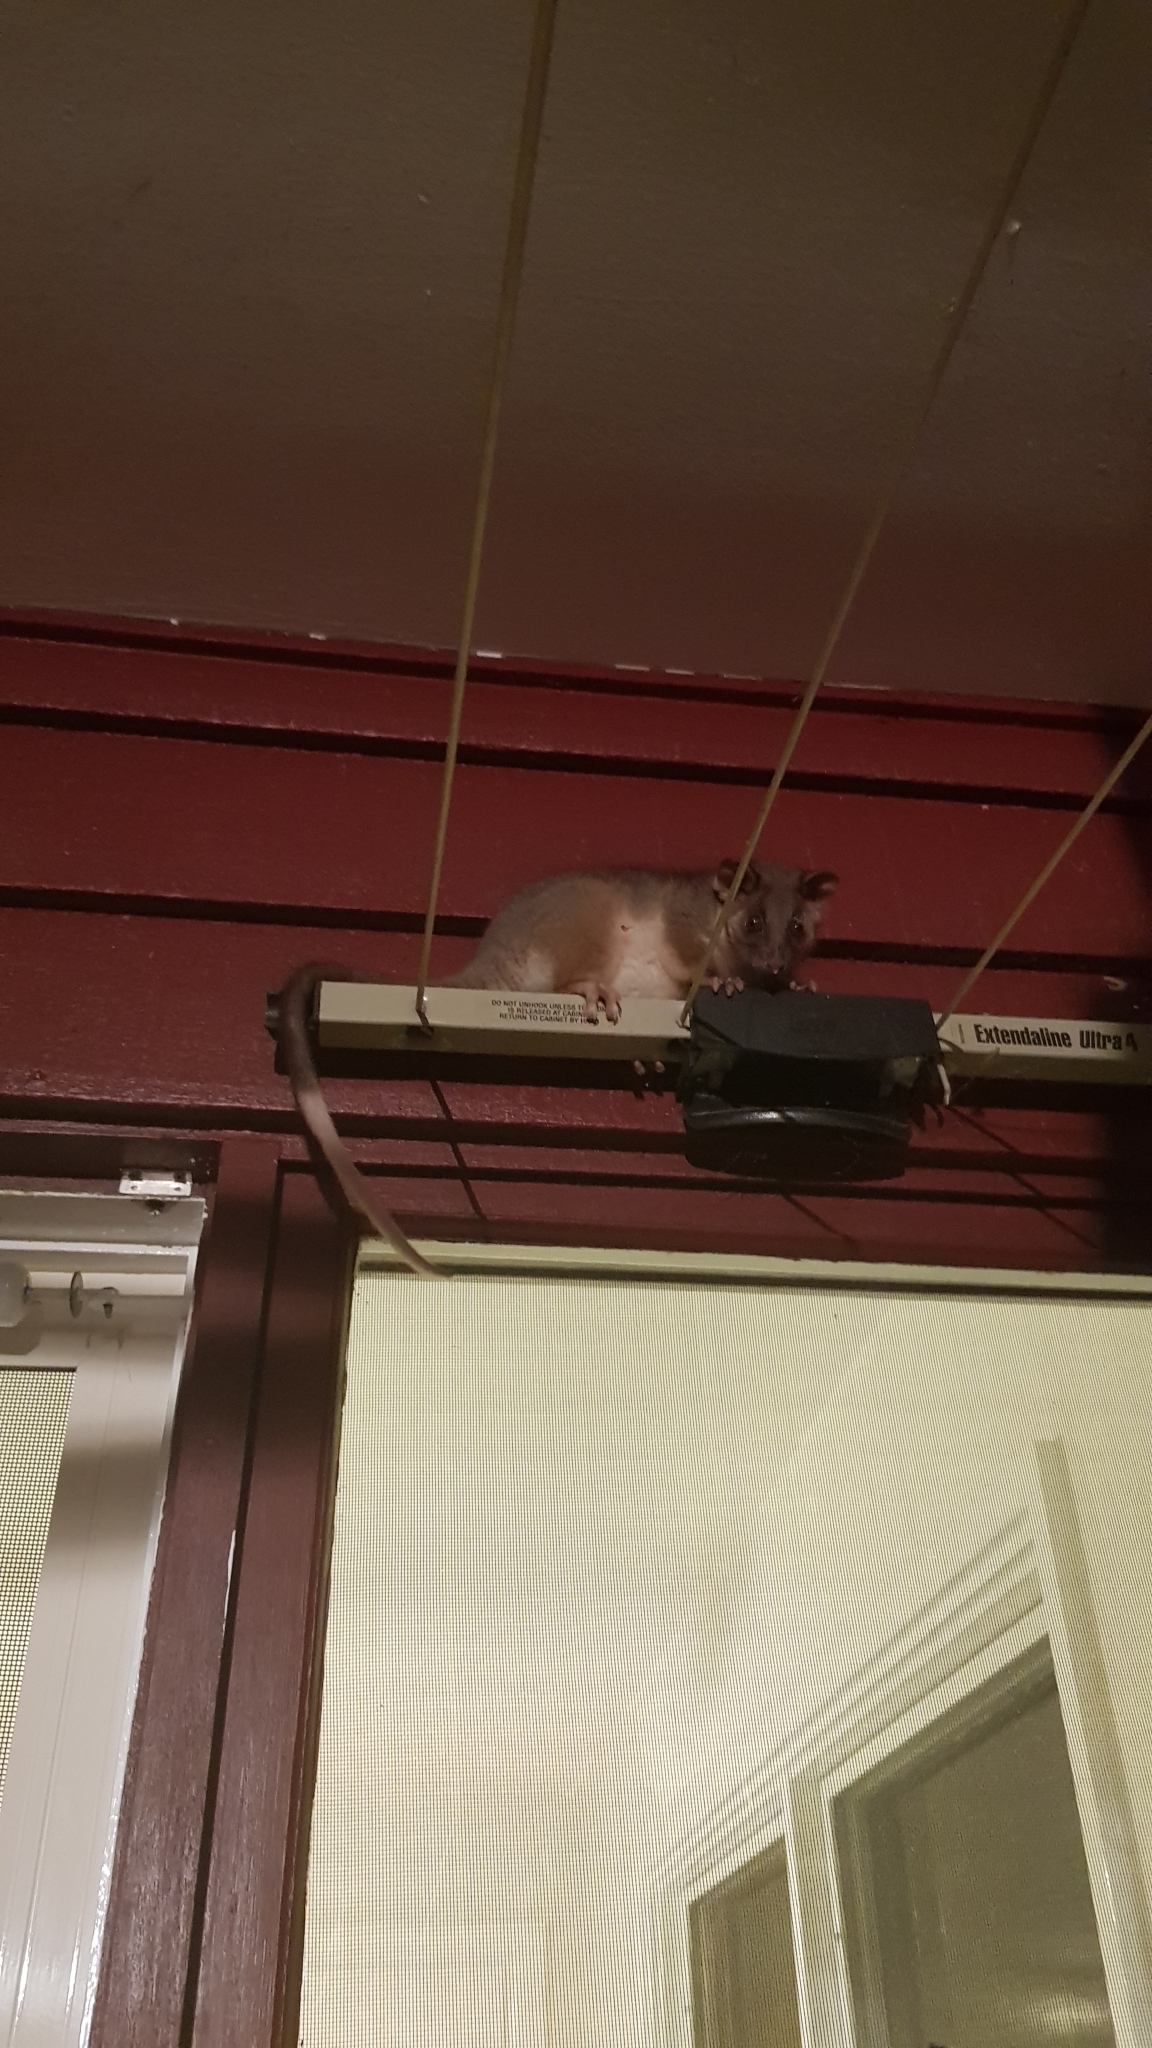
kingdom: Animalia
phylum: Chordata
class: Mammalia
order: Diprotodontia
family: Pseudocheiridae
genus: Pseudocheirus
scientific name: Pseudocheirus peregrinus
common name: Common ringtail possum
